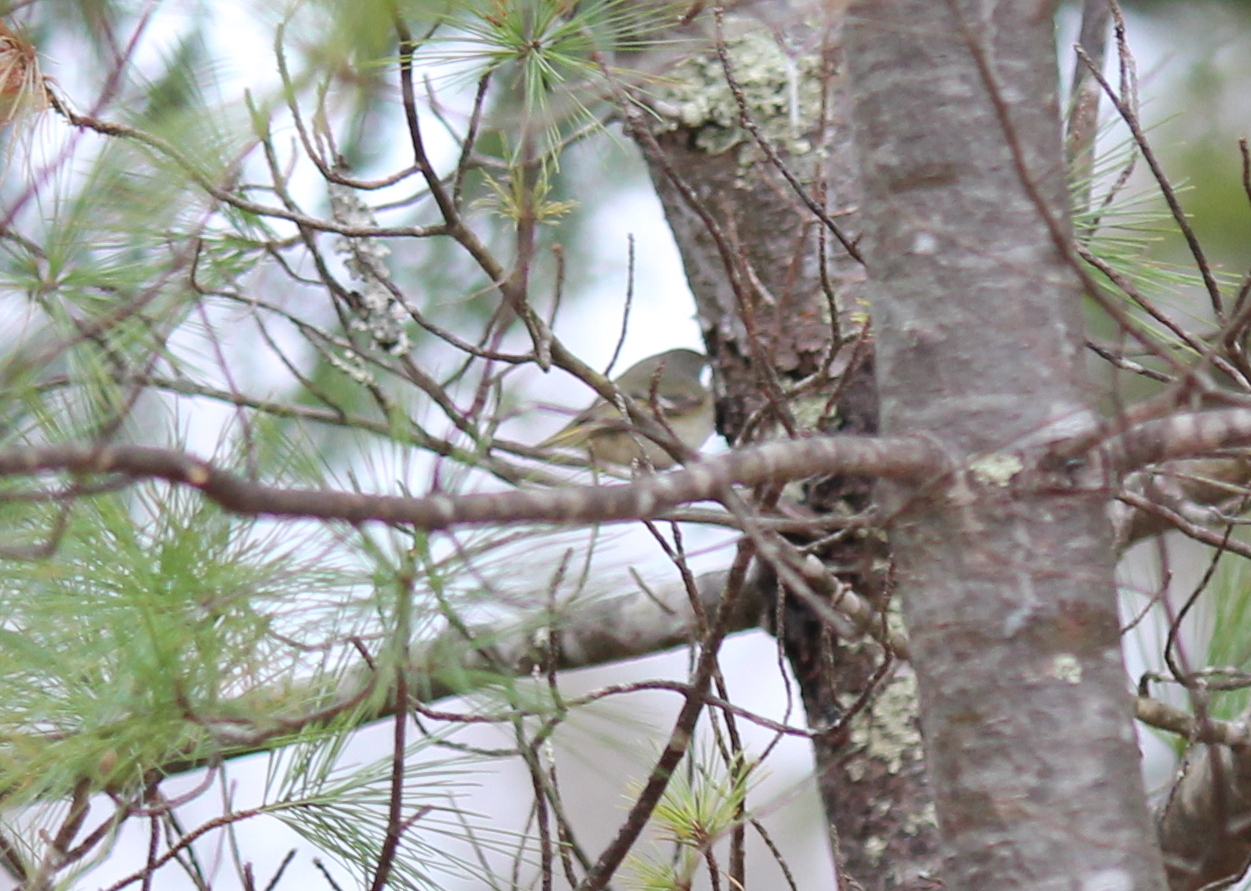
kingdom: Animalia
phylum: Chordata
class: Aves
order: Passeriformes
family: Regulidae
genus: Regulus
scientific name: Regulus calendula
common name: Ruby-crowned kinglet
